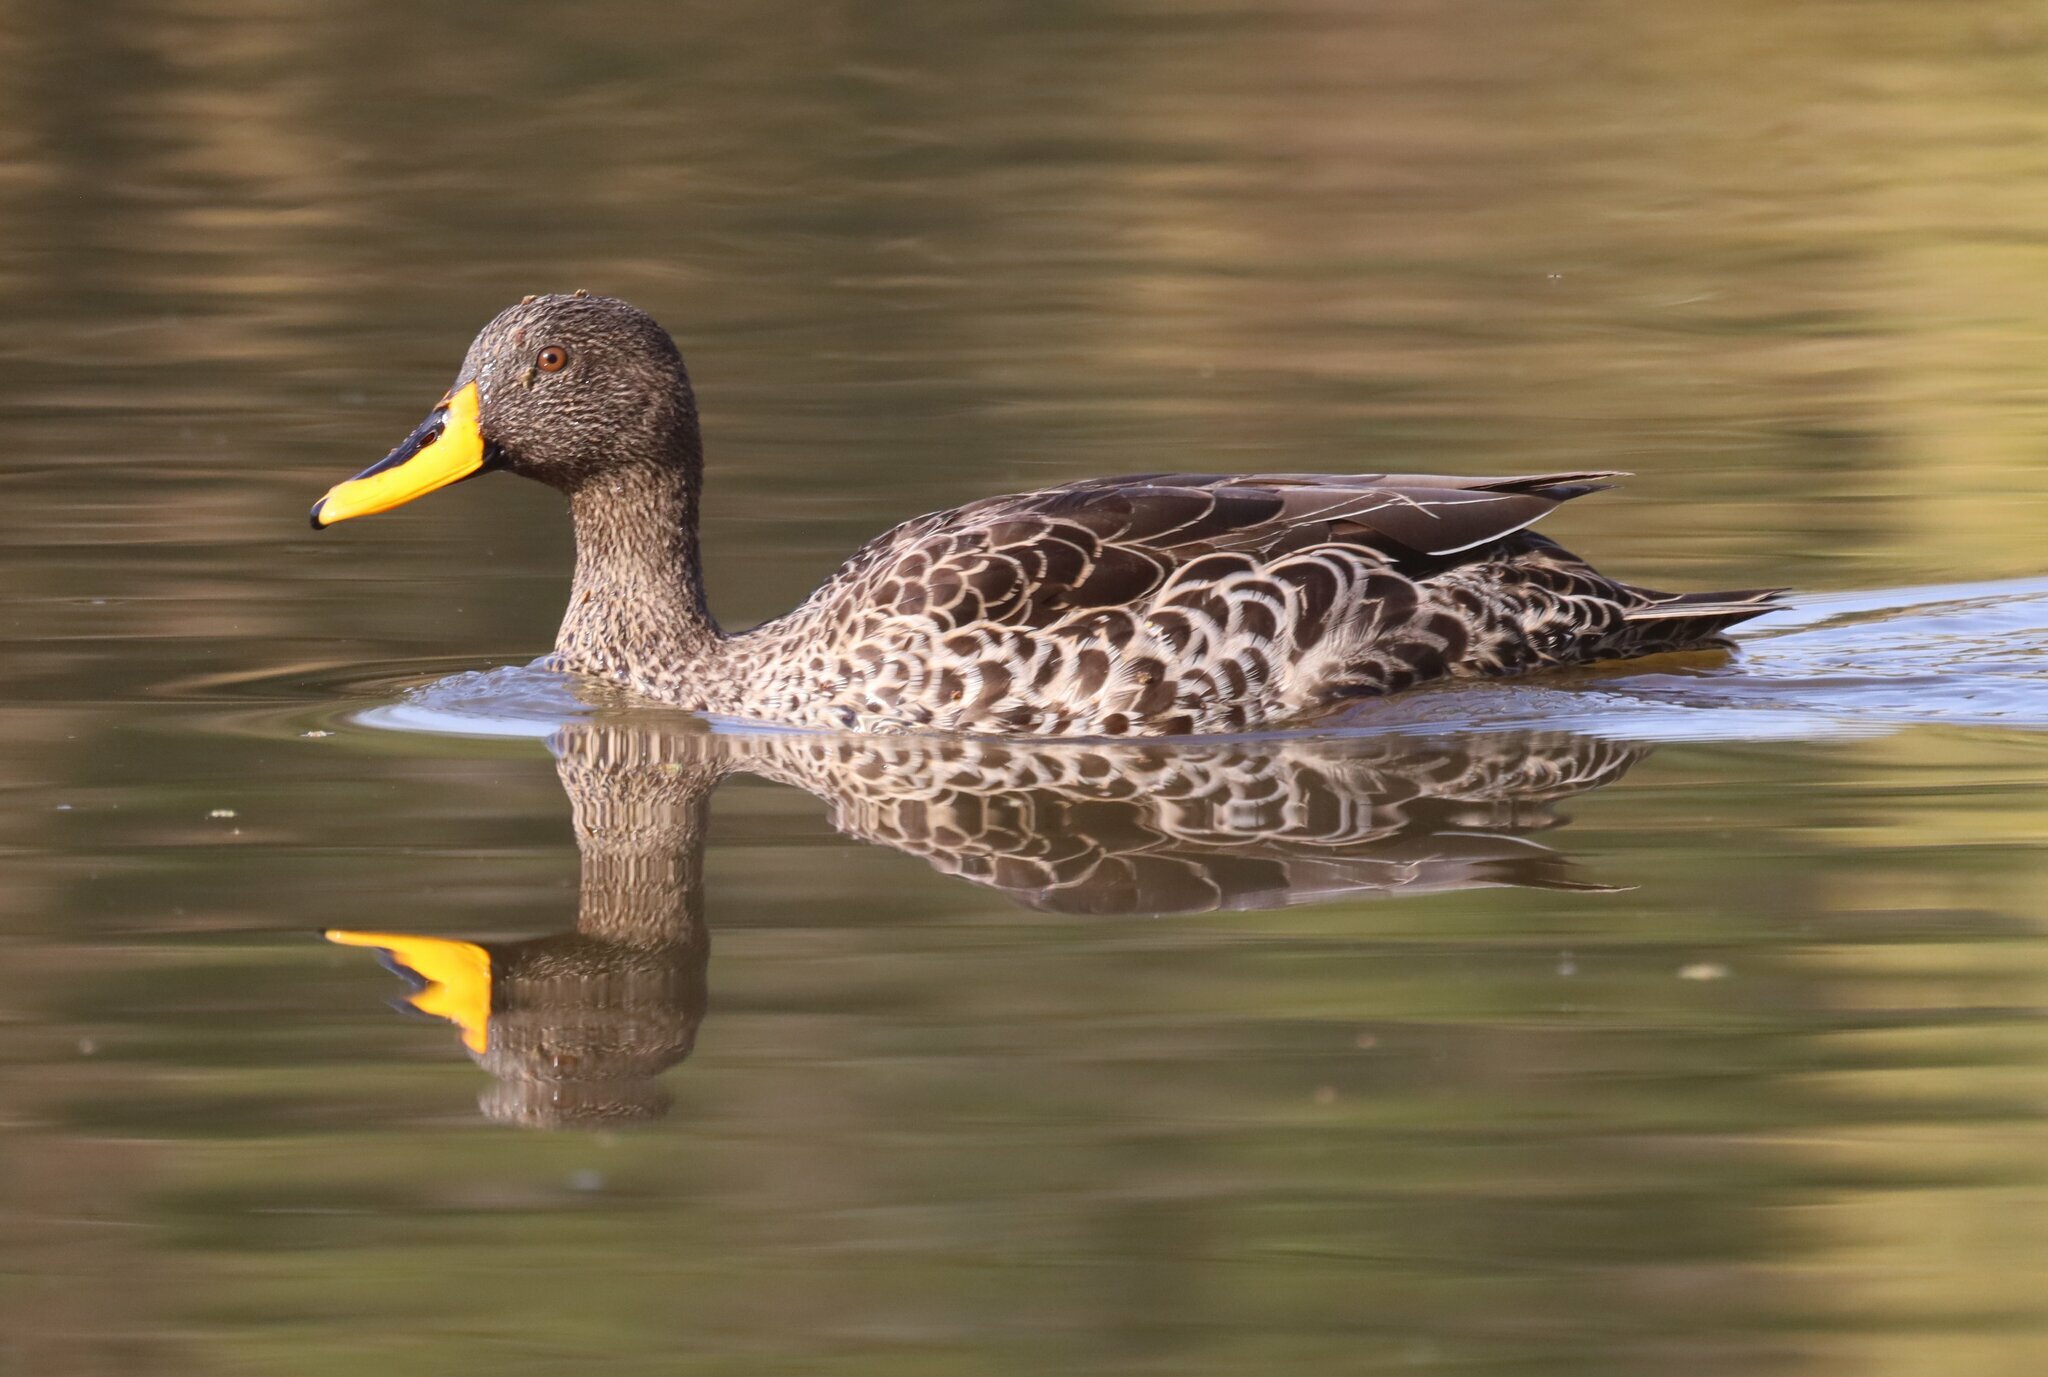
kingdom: Animalia
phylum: Chordata
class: Aves
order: Anseriformes
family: Anatidae
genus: Anas
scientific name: Anas undulata
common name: Yellow-billed duck
